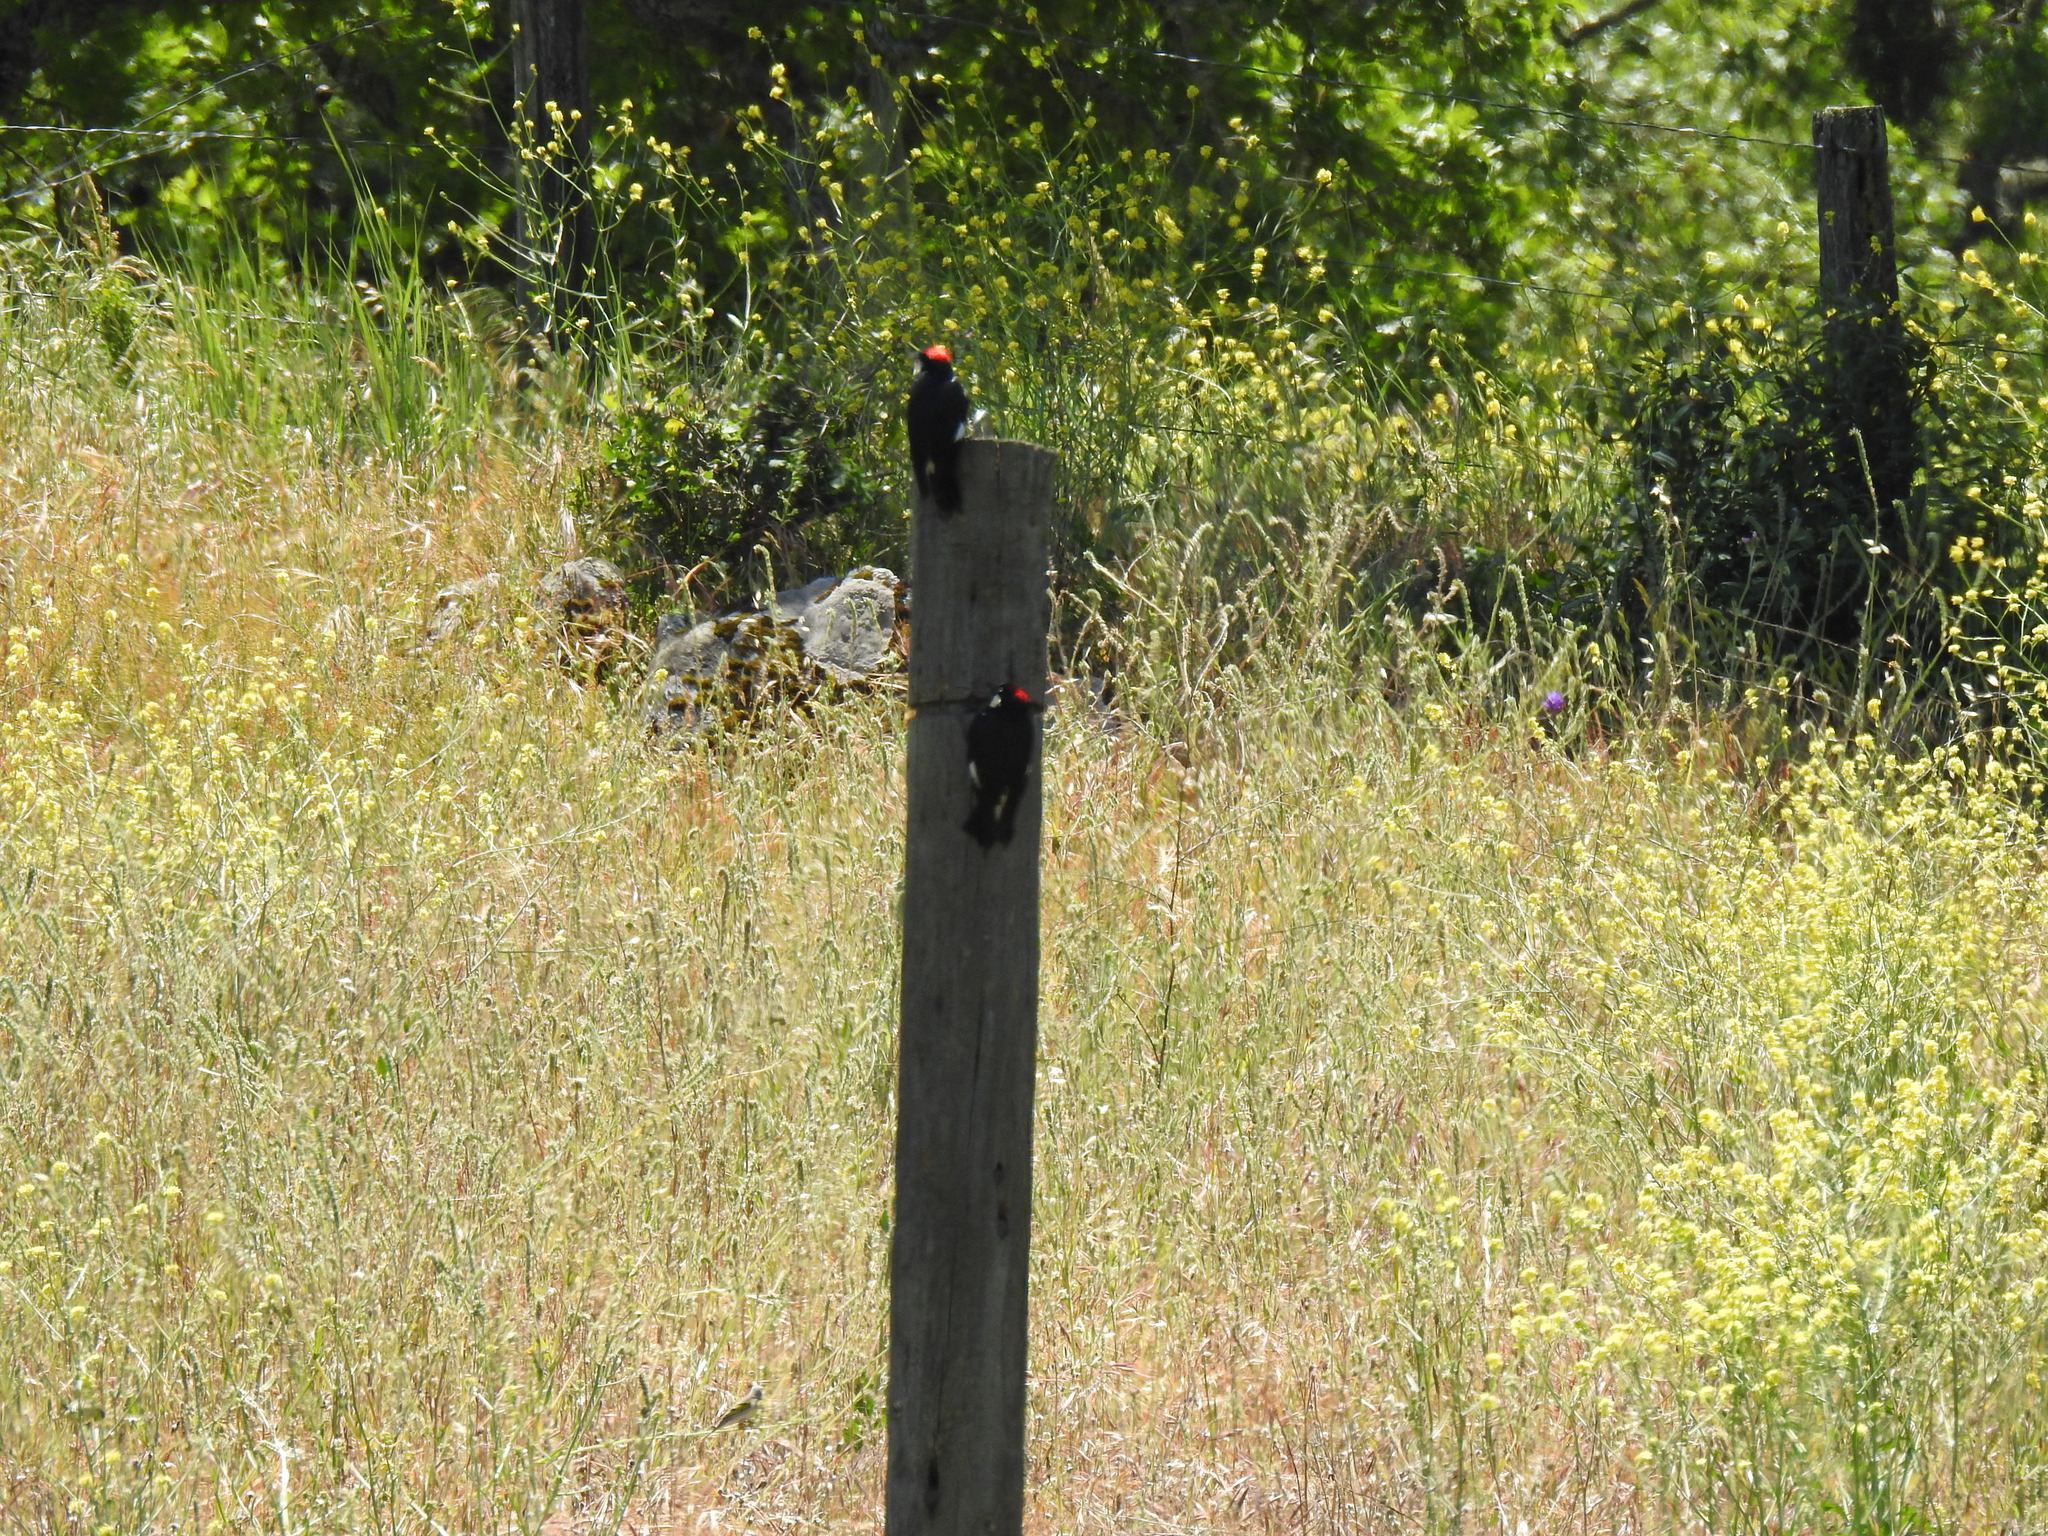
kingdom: Animalia
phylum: Chordata
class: Aves
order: Piciformes
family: Picidae
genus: Melanerpes
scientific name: Melanerpes formicivorus
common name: Acorn woodpecker
